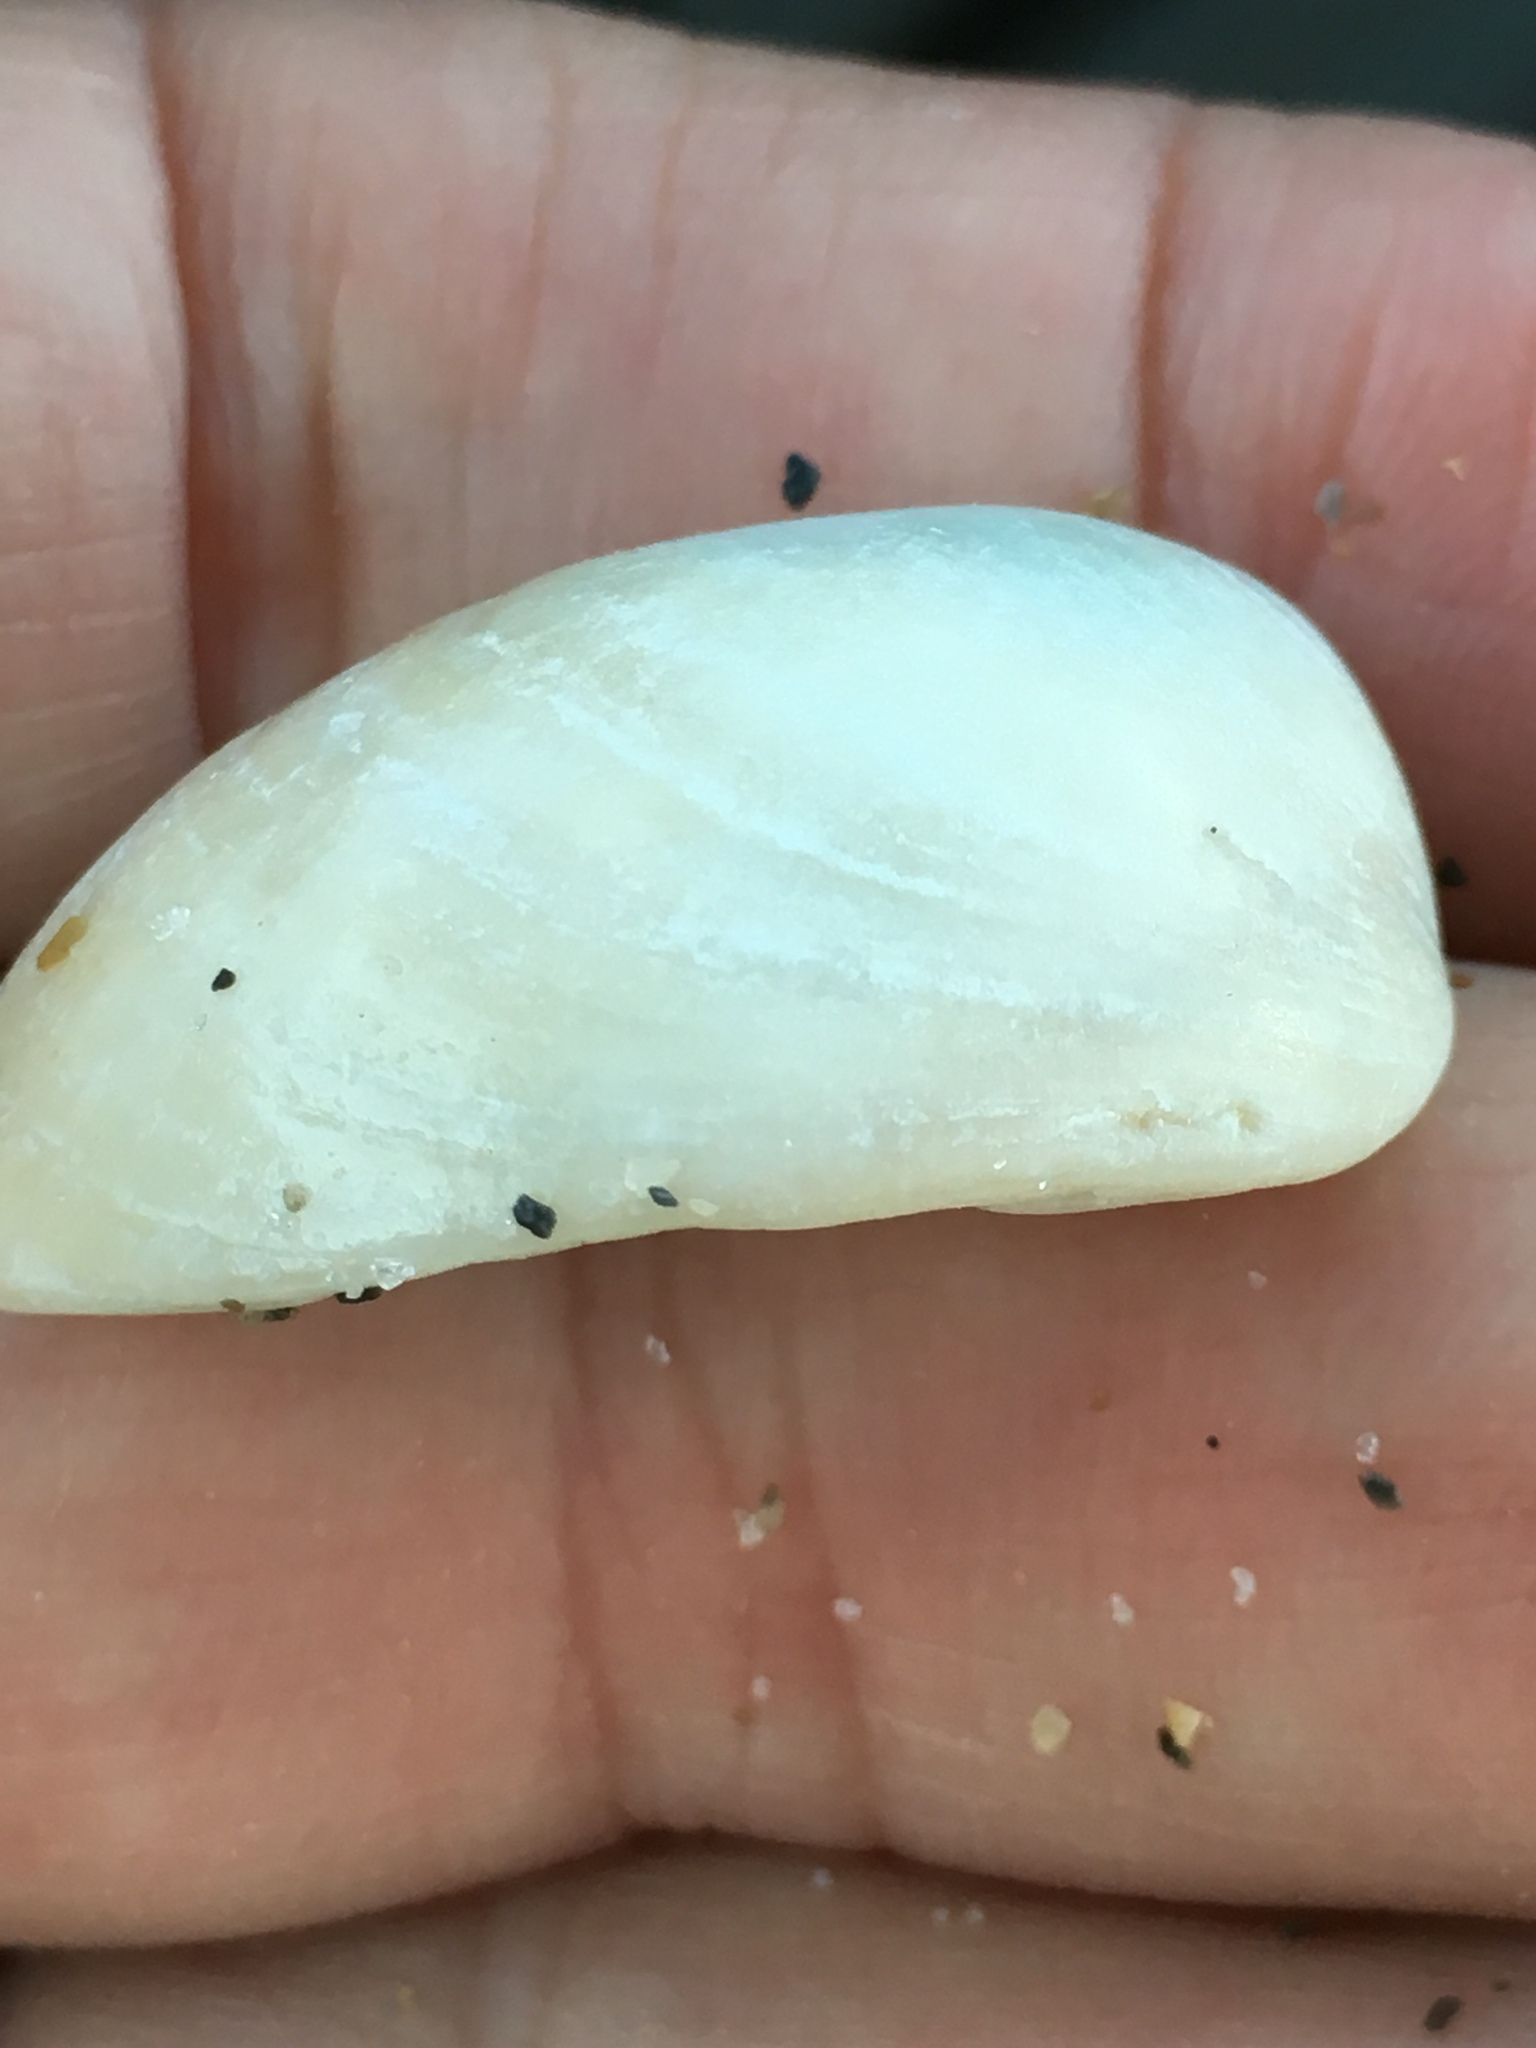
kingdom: Animalia
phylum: Mollusca
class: Gastropoda
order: Littorinimorpha
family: Calyptraeidae
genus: Crepidula
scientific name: Crepidula fornicata
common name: Slipper limpet
